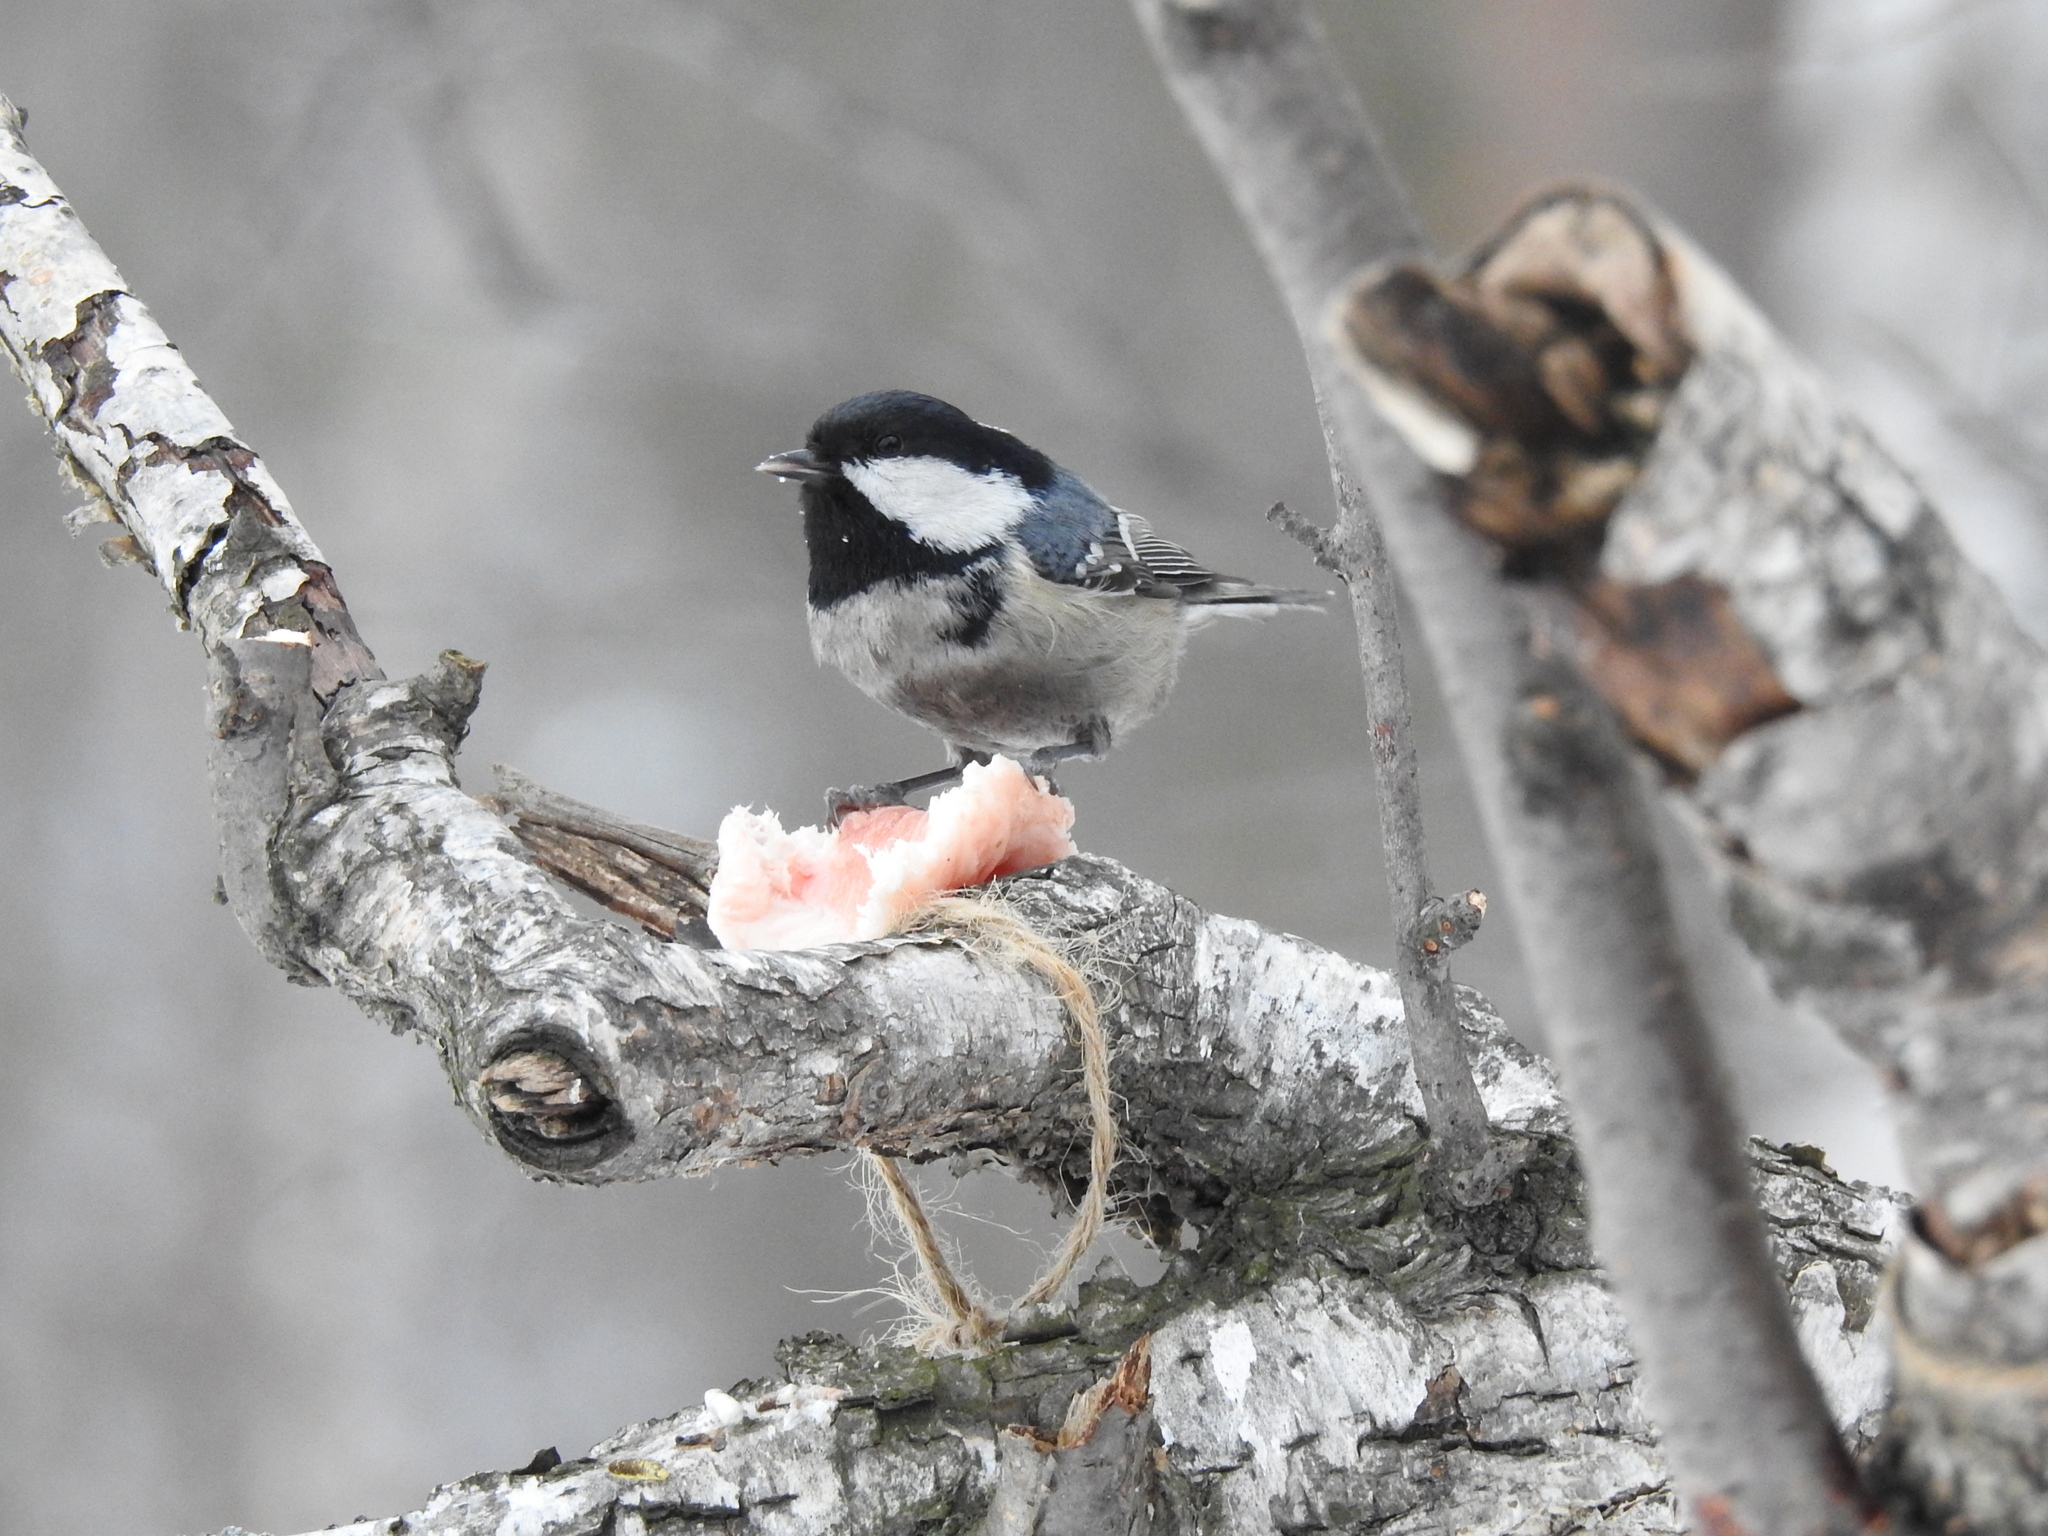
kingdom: Animalia
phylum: Chordata
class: Aves
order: Passeriformes
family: Paridae
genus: Periparus
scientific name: Periparus ater
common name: Coal tit
